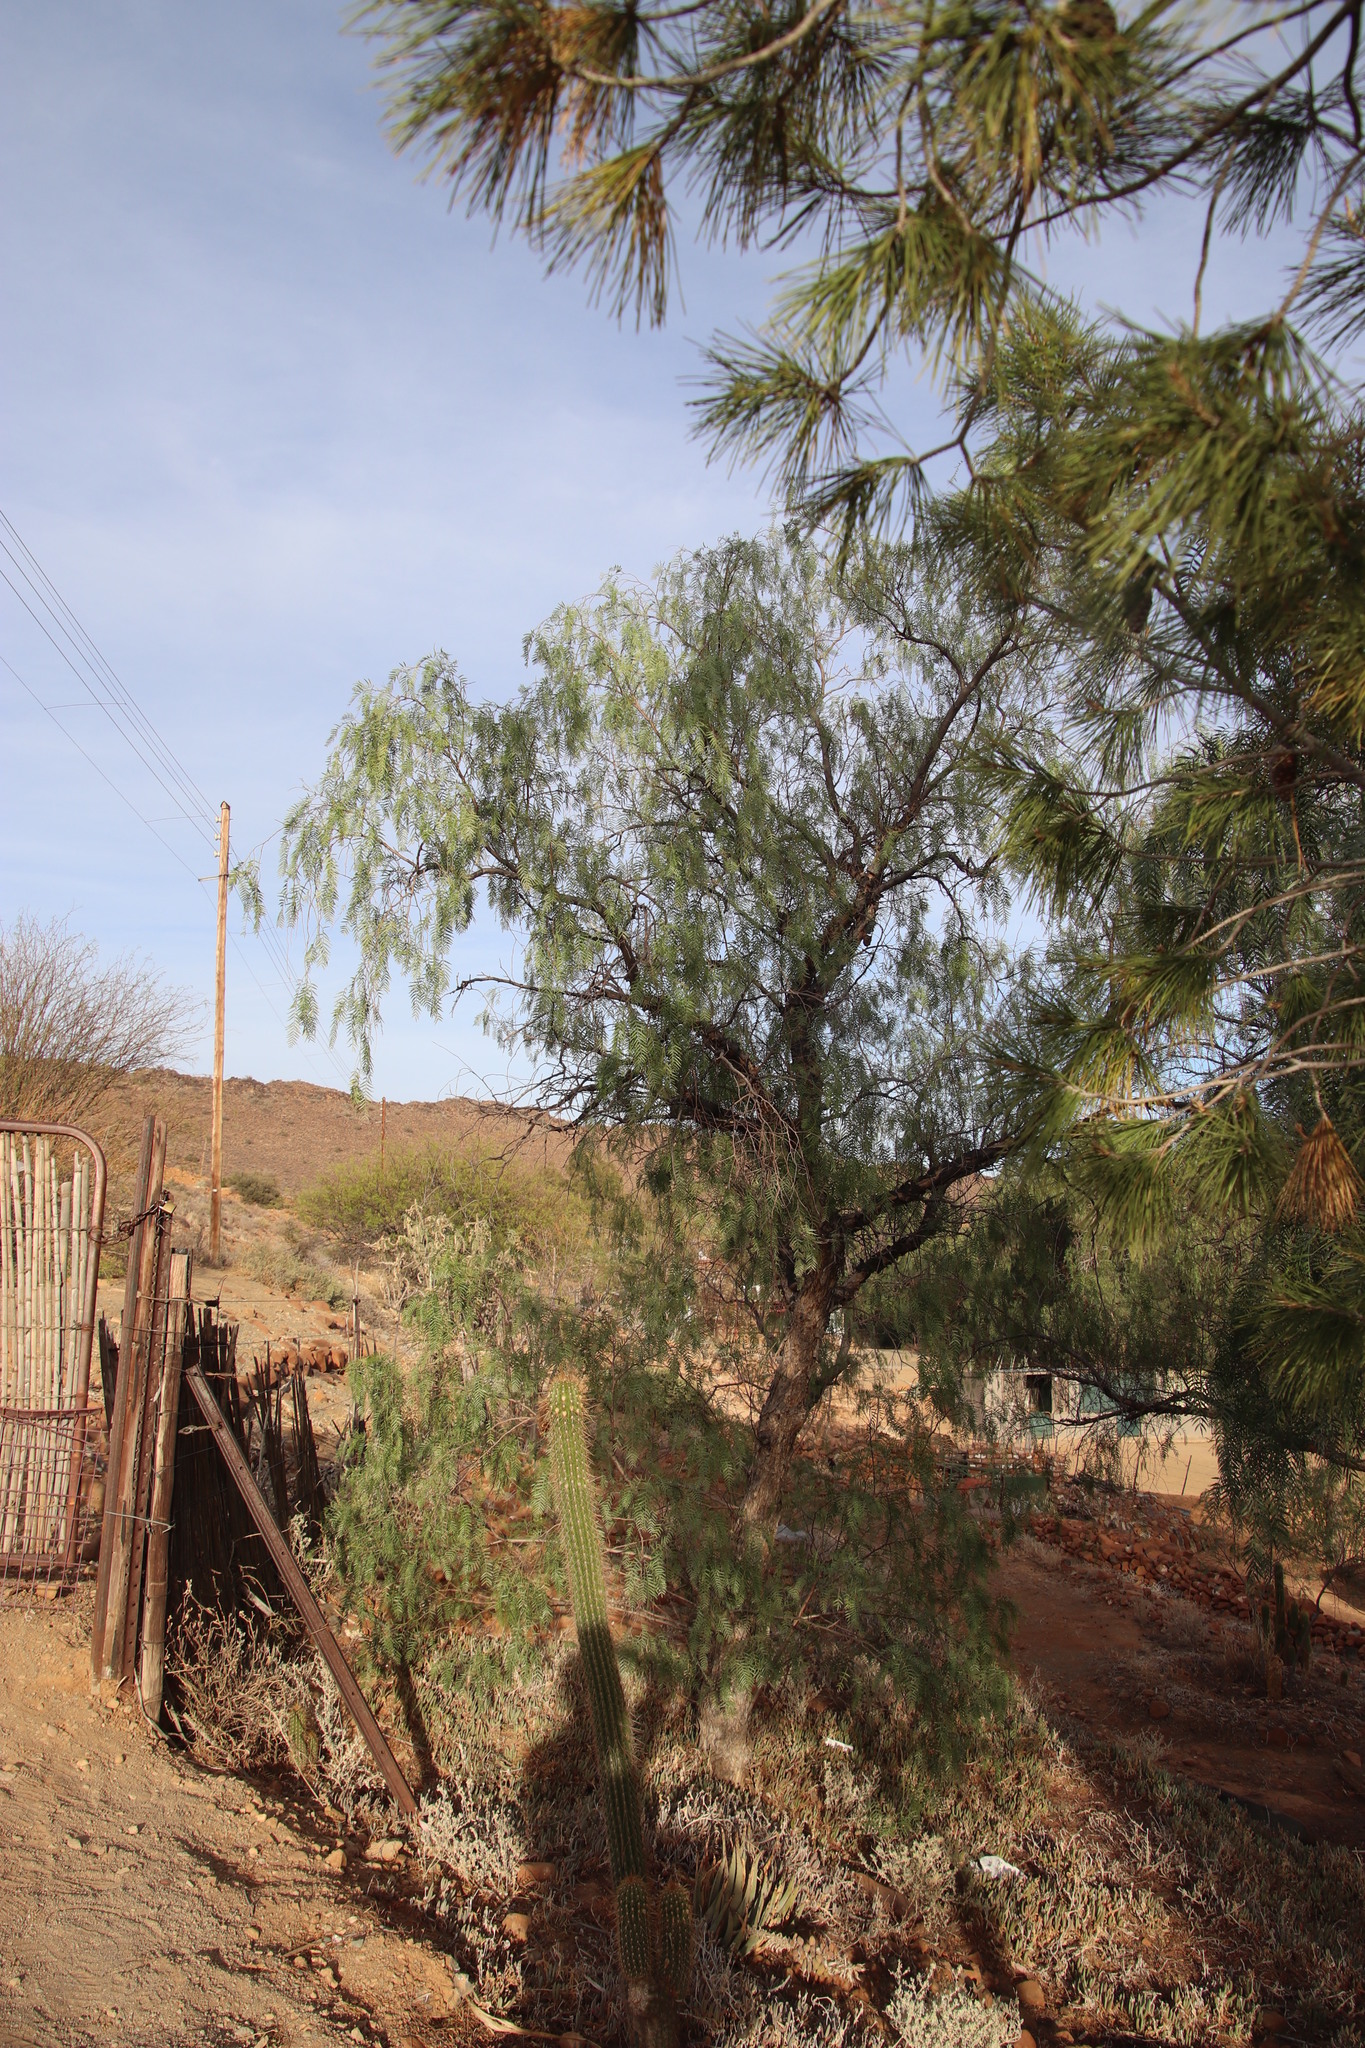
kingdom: Plantae
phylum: Tracheophyta
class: Magnoliopsida
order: Sapindales
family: Anacardiaceae
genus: Schinus
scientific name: Schinus molle
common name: Peruvian peppertree
